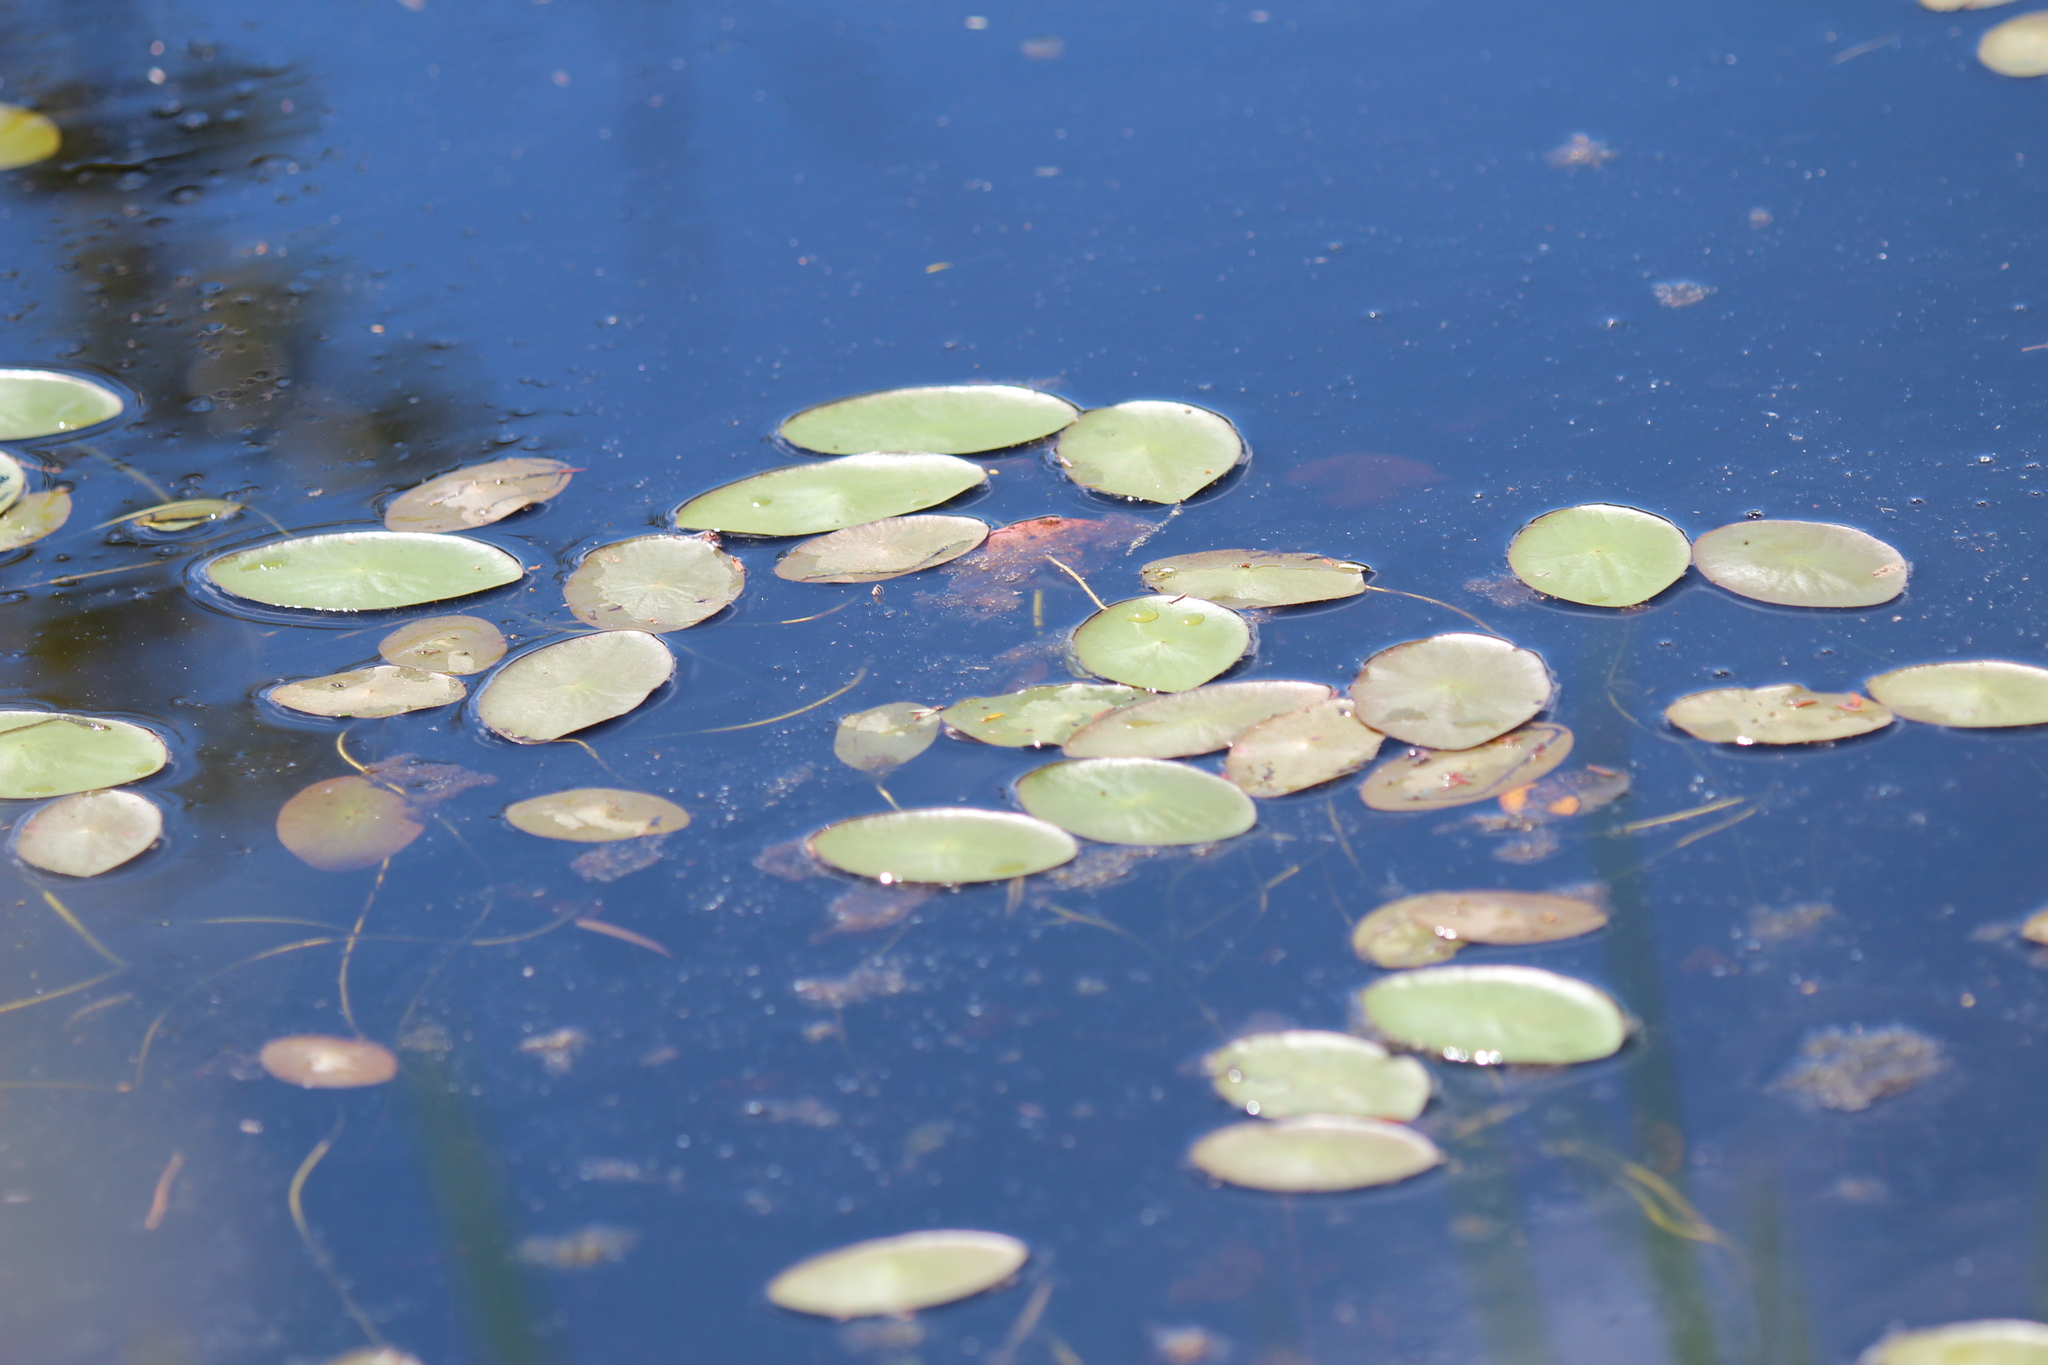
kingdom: Plantae
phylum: Tracheophyta
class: Magnoliopsida
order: Nymphaeales
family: Cabombaceae
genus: Brasenia
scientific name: Brasenia schreberi
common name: Water-shield
